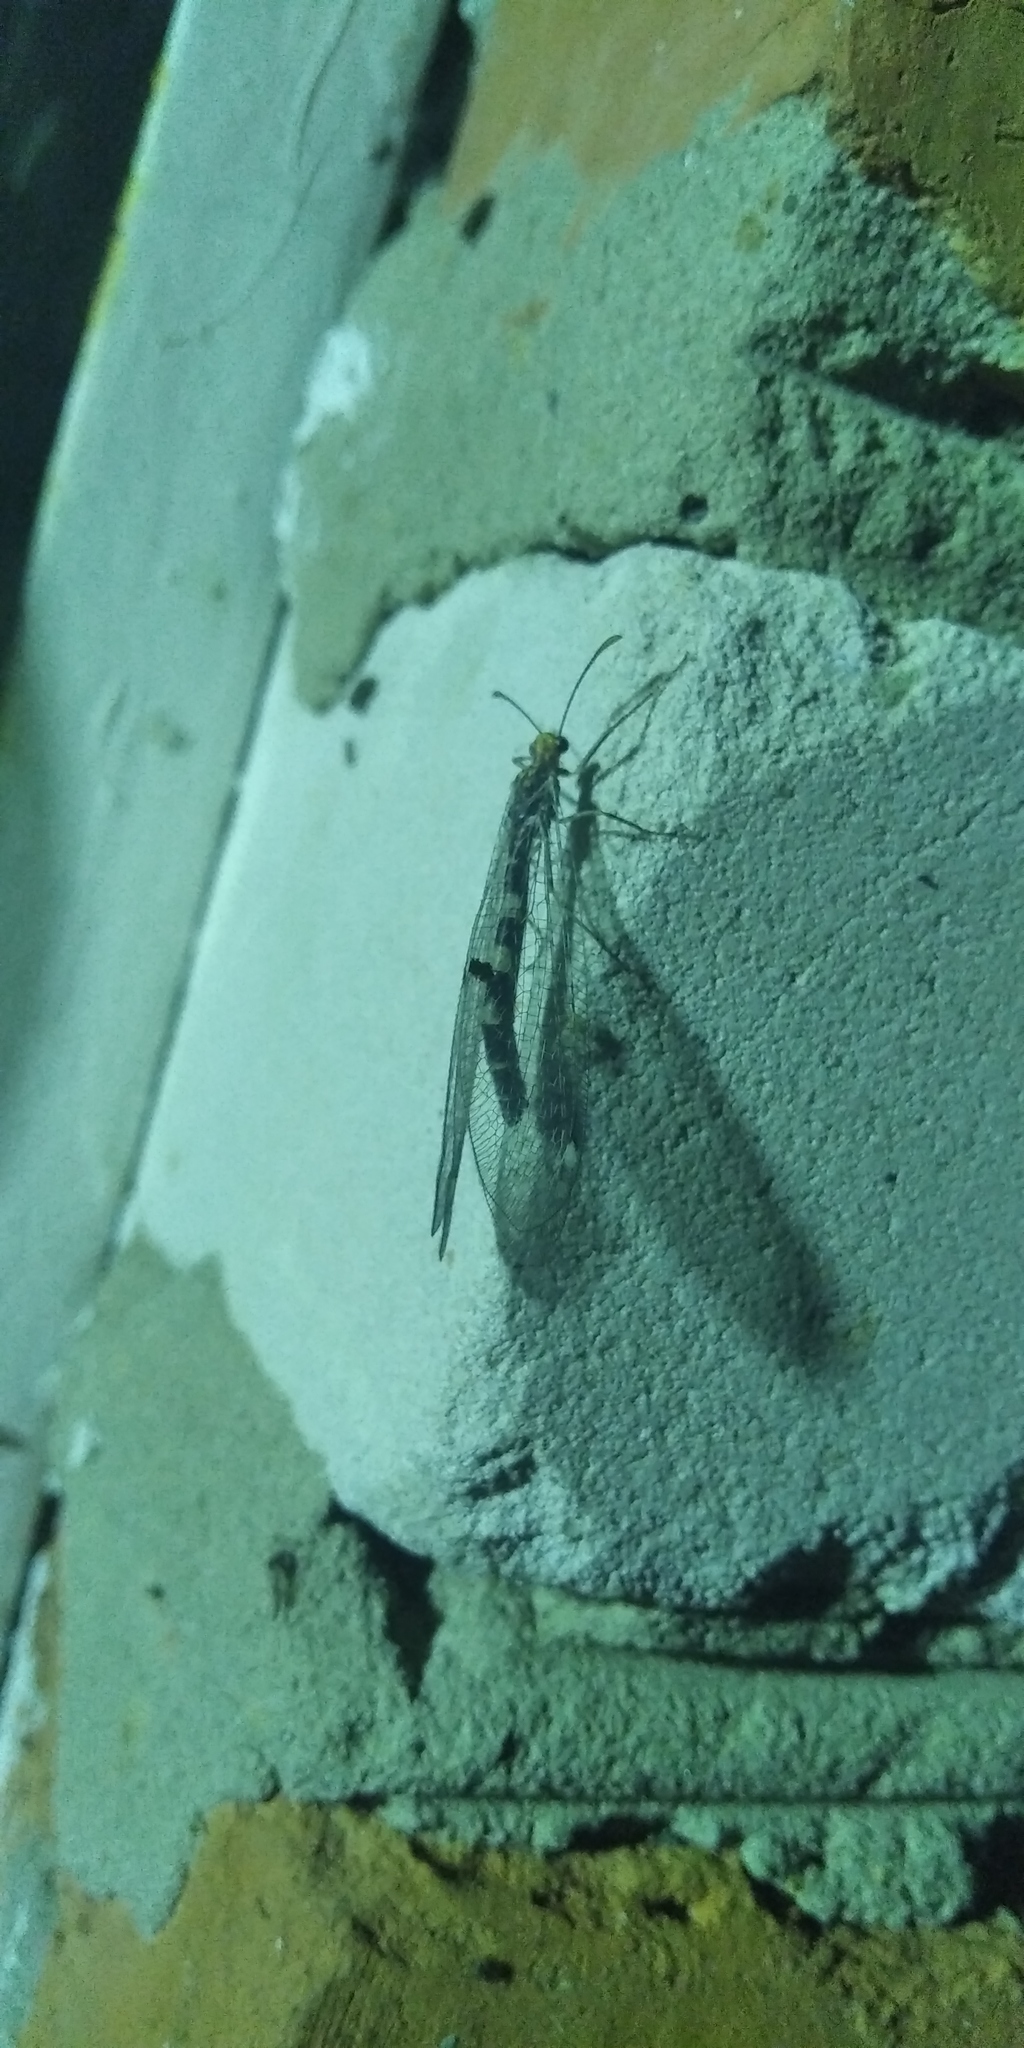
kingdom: Animalia
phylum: Arthropoda
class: Insecta
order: Neuroptera
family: Myrmeleontidae
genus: Megistopus
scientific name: Megistopus flavicornis
